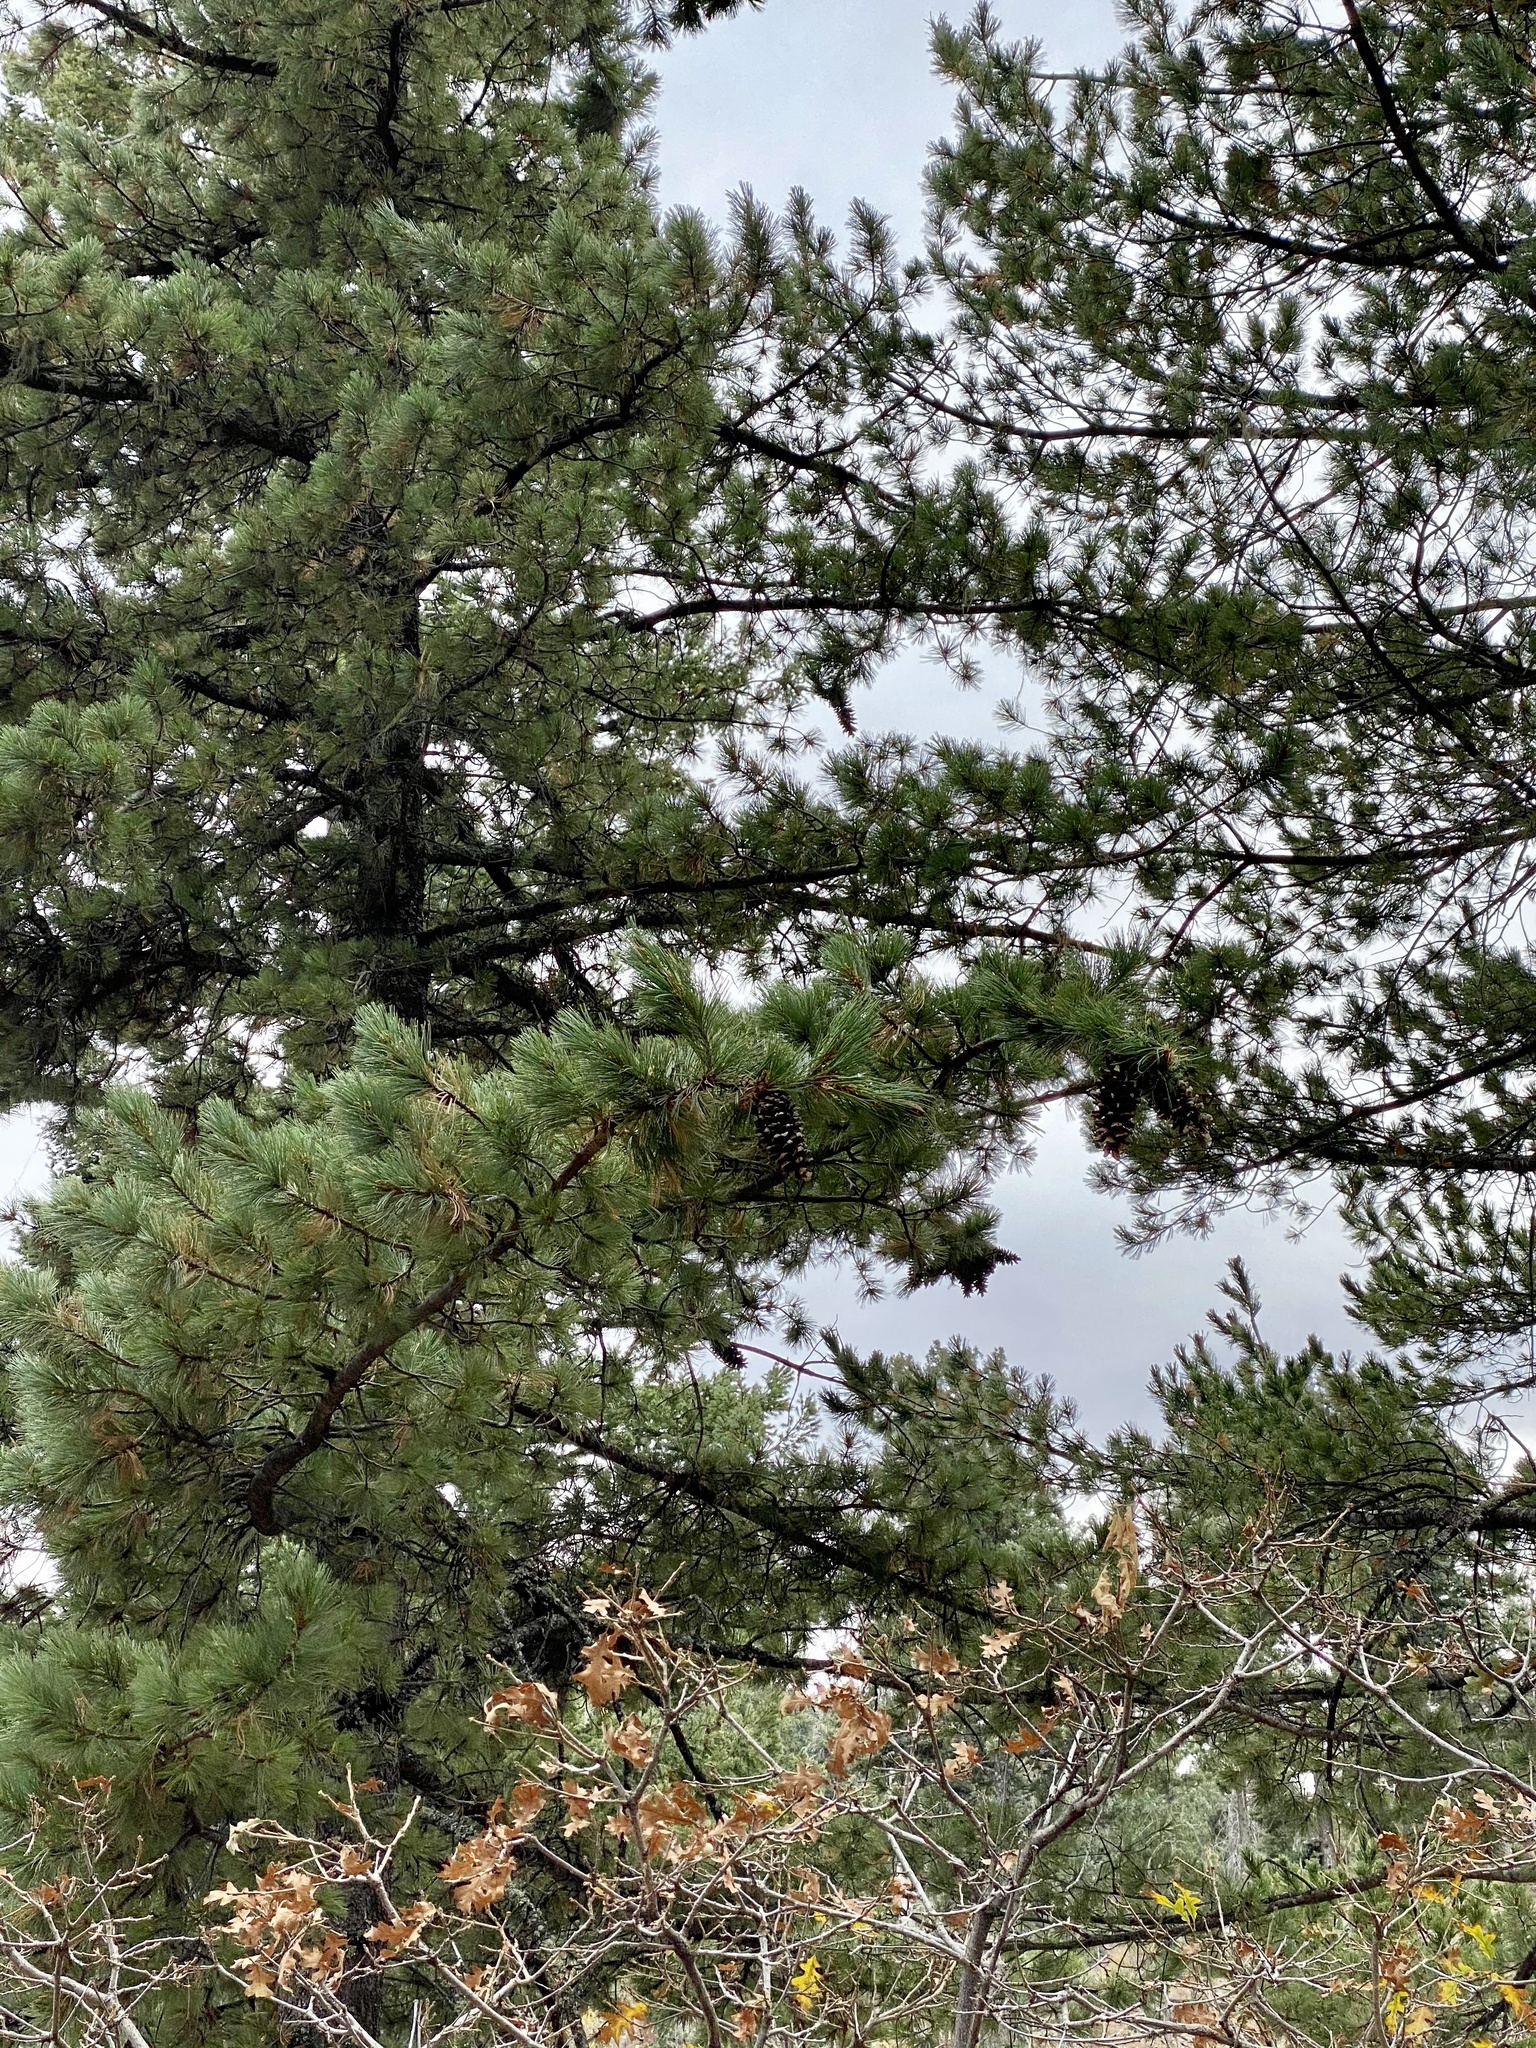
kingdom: Plantae
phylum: Tracheophyta
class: Pinopsida
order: Pinales
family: Pinaceae
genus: Pinus
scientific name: Pinus strobiformis
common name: Southwestern white pine
